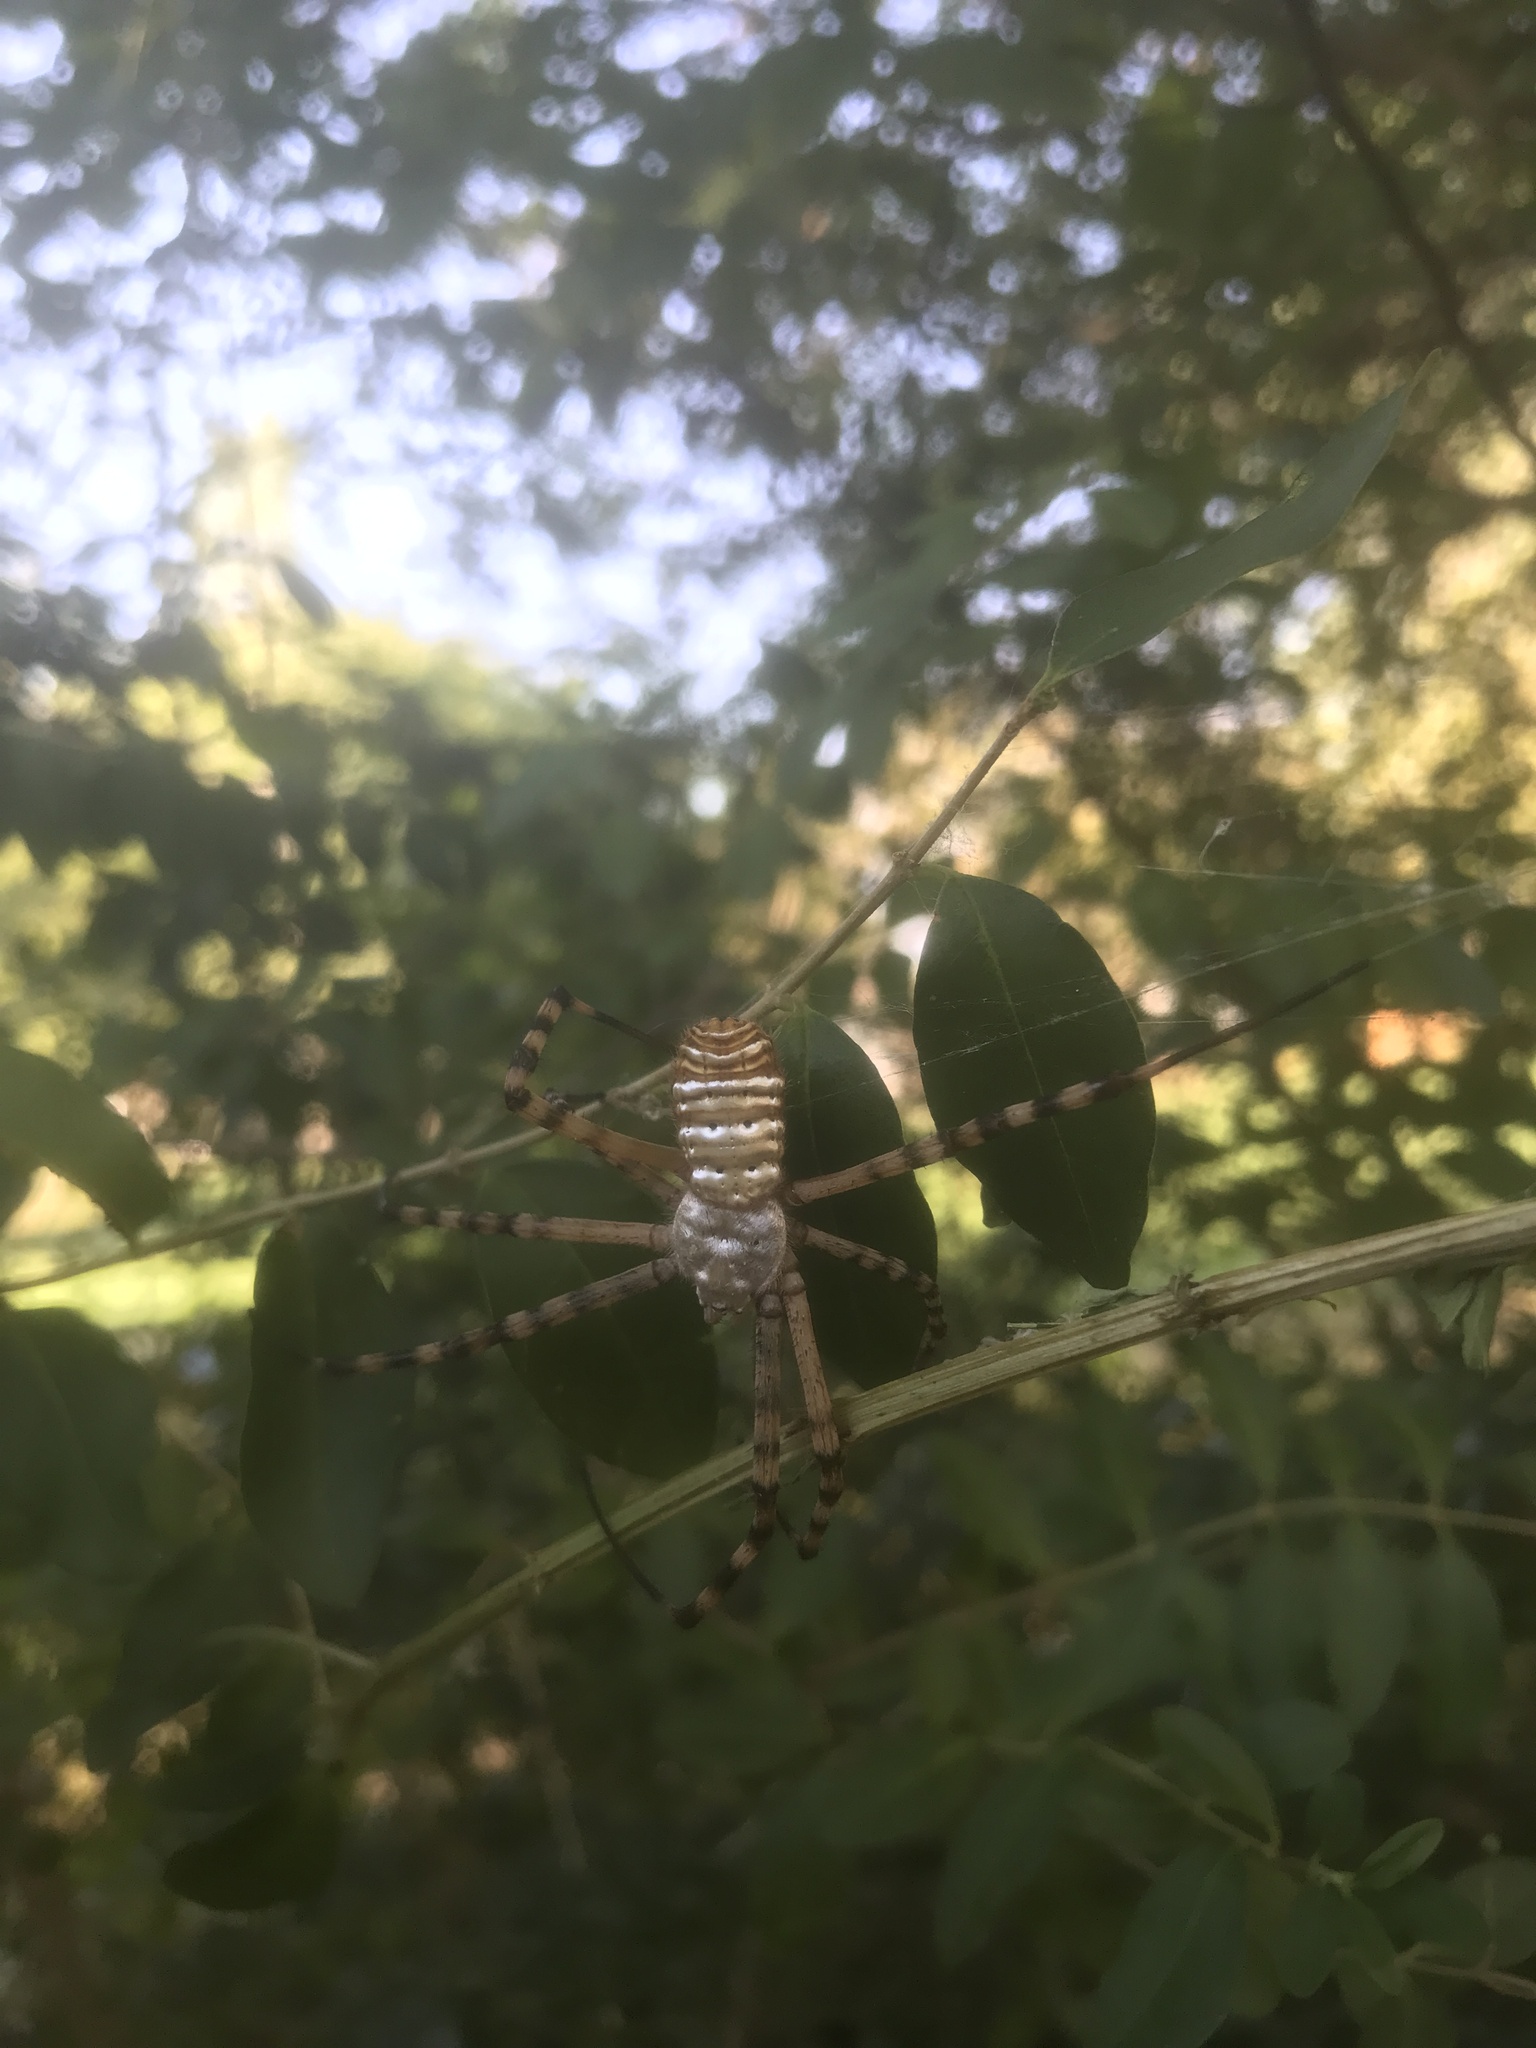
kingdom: Animalia
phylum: Arthropoda
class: Arachnida
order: Araneae
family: Araneidae
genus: Argiope
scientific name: Argiope trifasciata
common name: Banded garden spider
